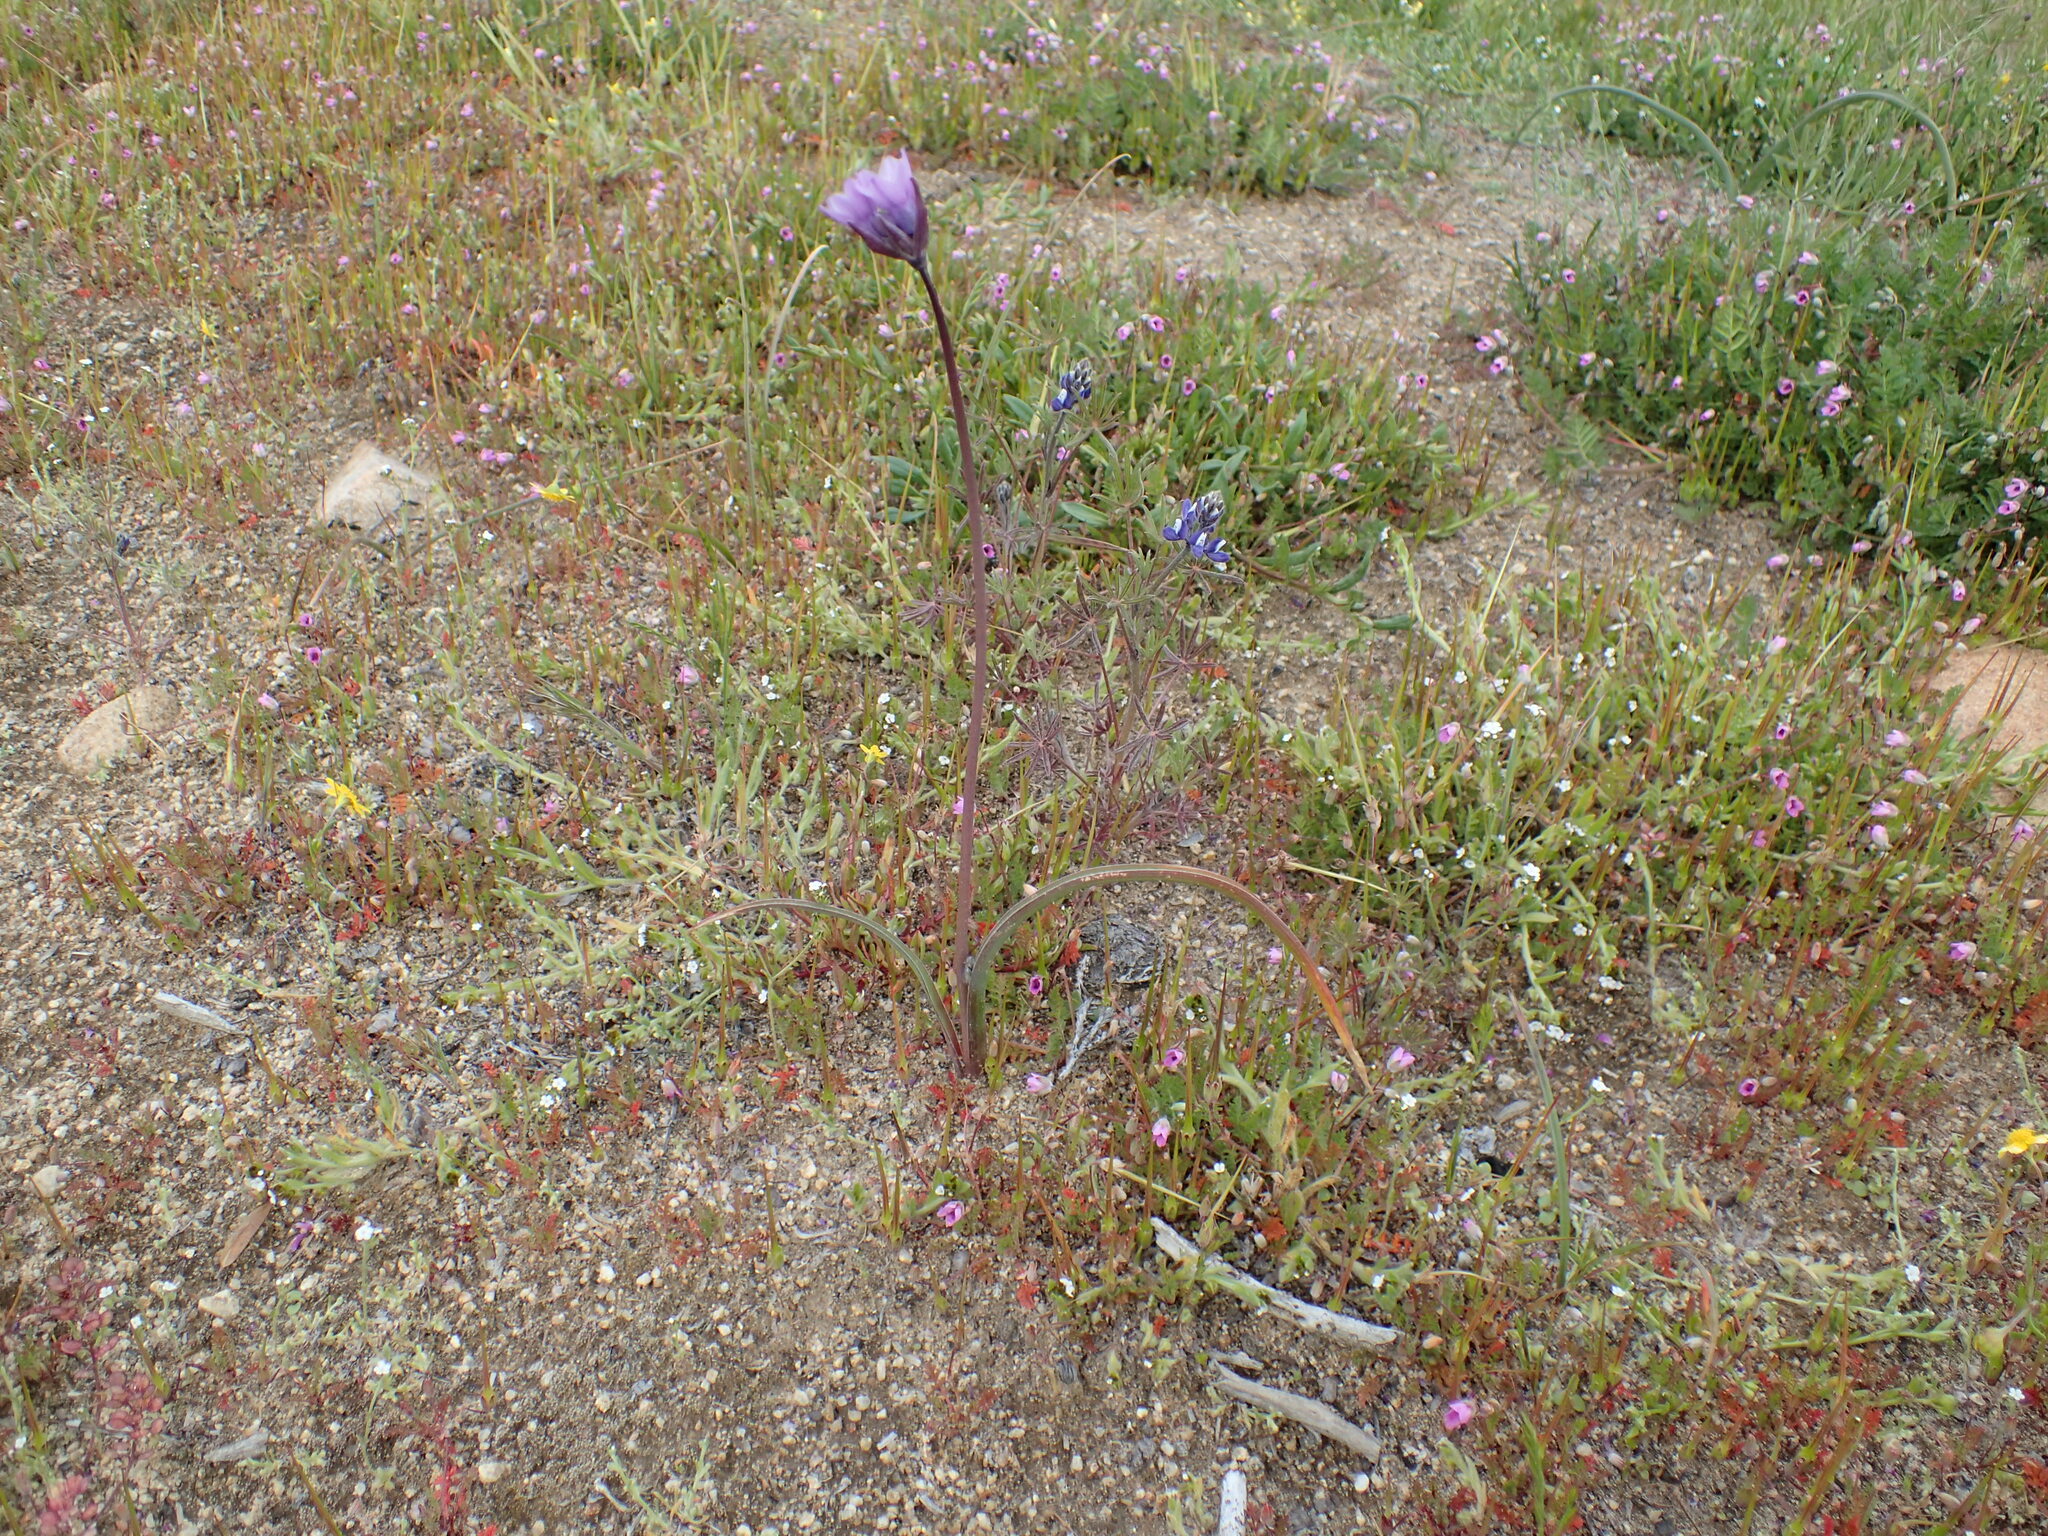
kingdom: Plantae
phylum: Tracheophyta
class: Liliopsida
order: Asparagales
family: Asparagaceae
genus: Dipterostemon
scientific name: Dipterostemon capitatus
